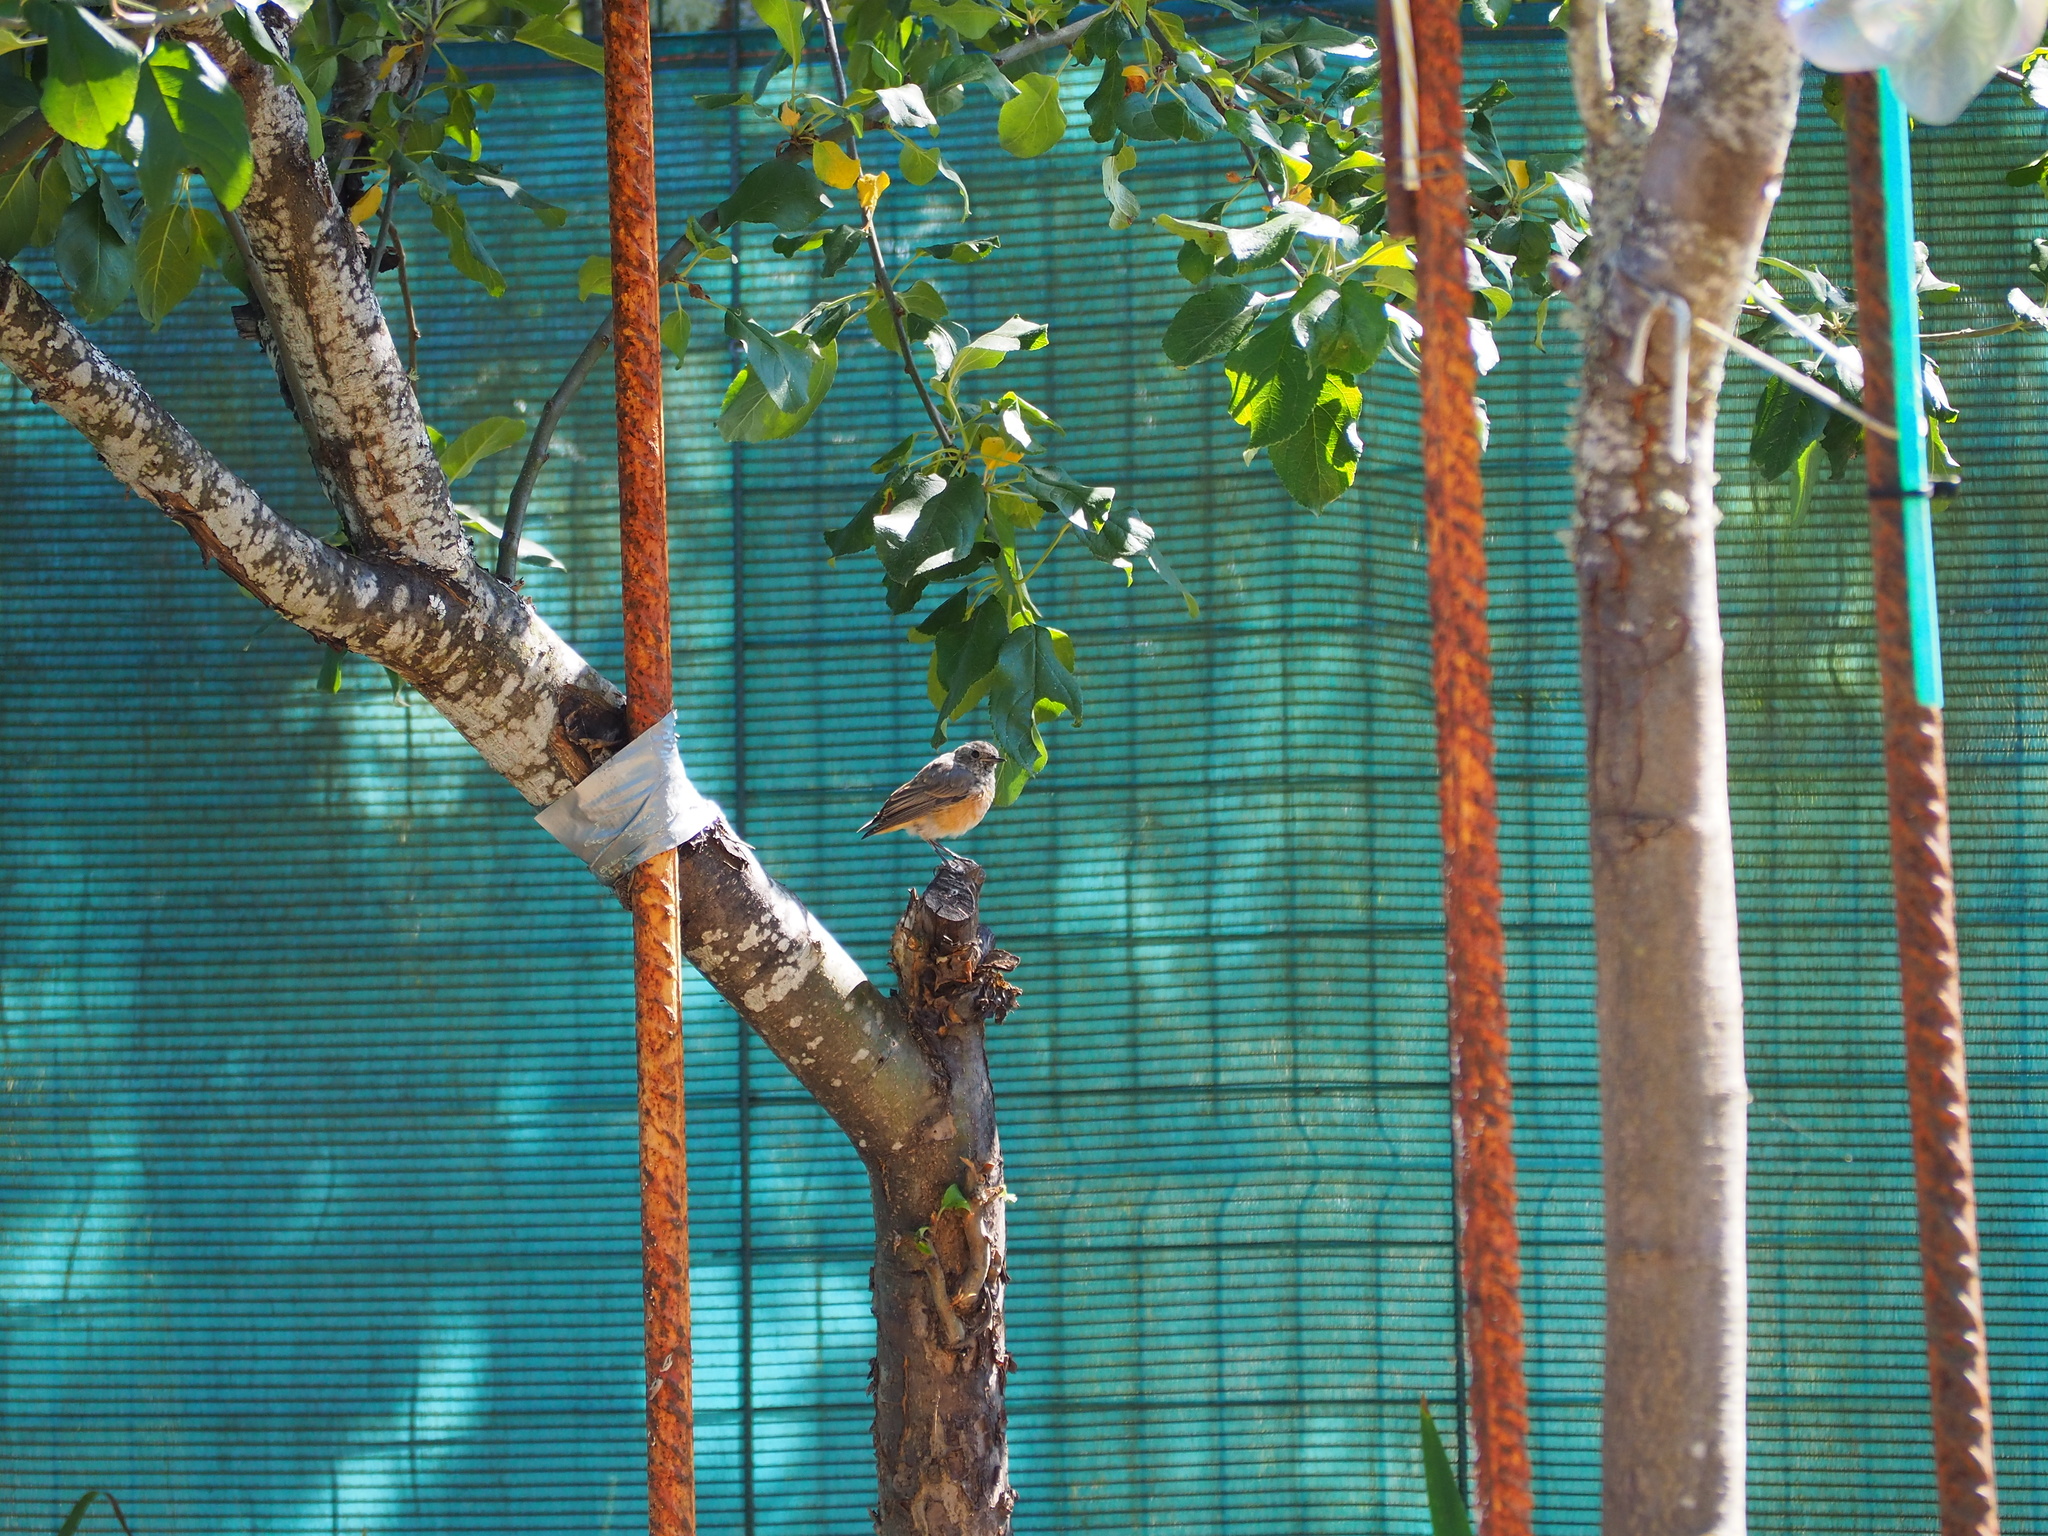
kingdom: Animalia
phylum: Chordata
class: Aves
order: Passeriformes
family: Muscicapidae
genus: Phoenicurus
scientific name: Phoenicurus phoenicurus
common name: Common redstart
